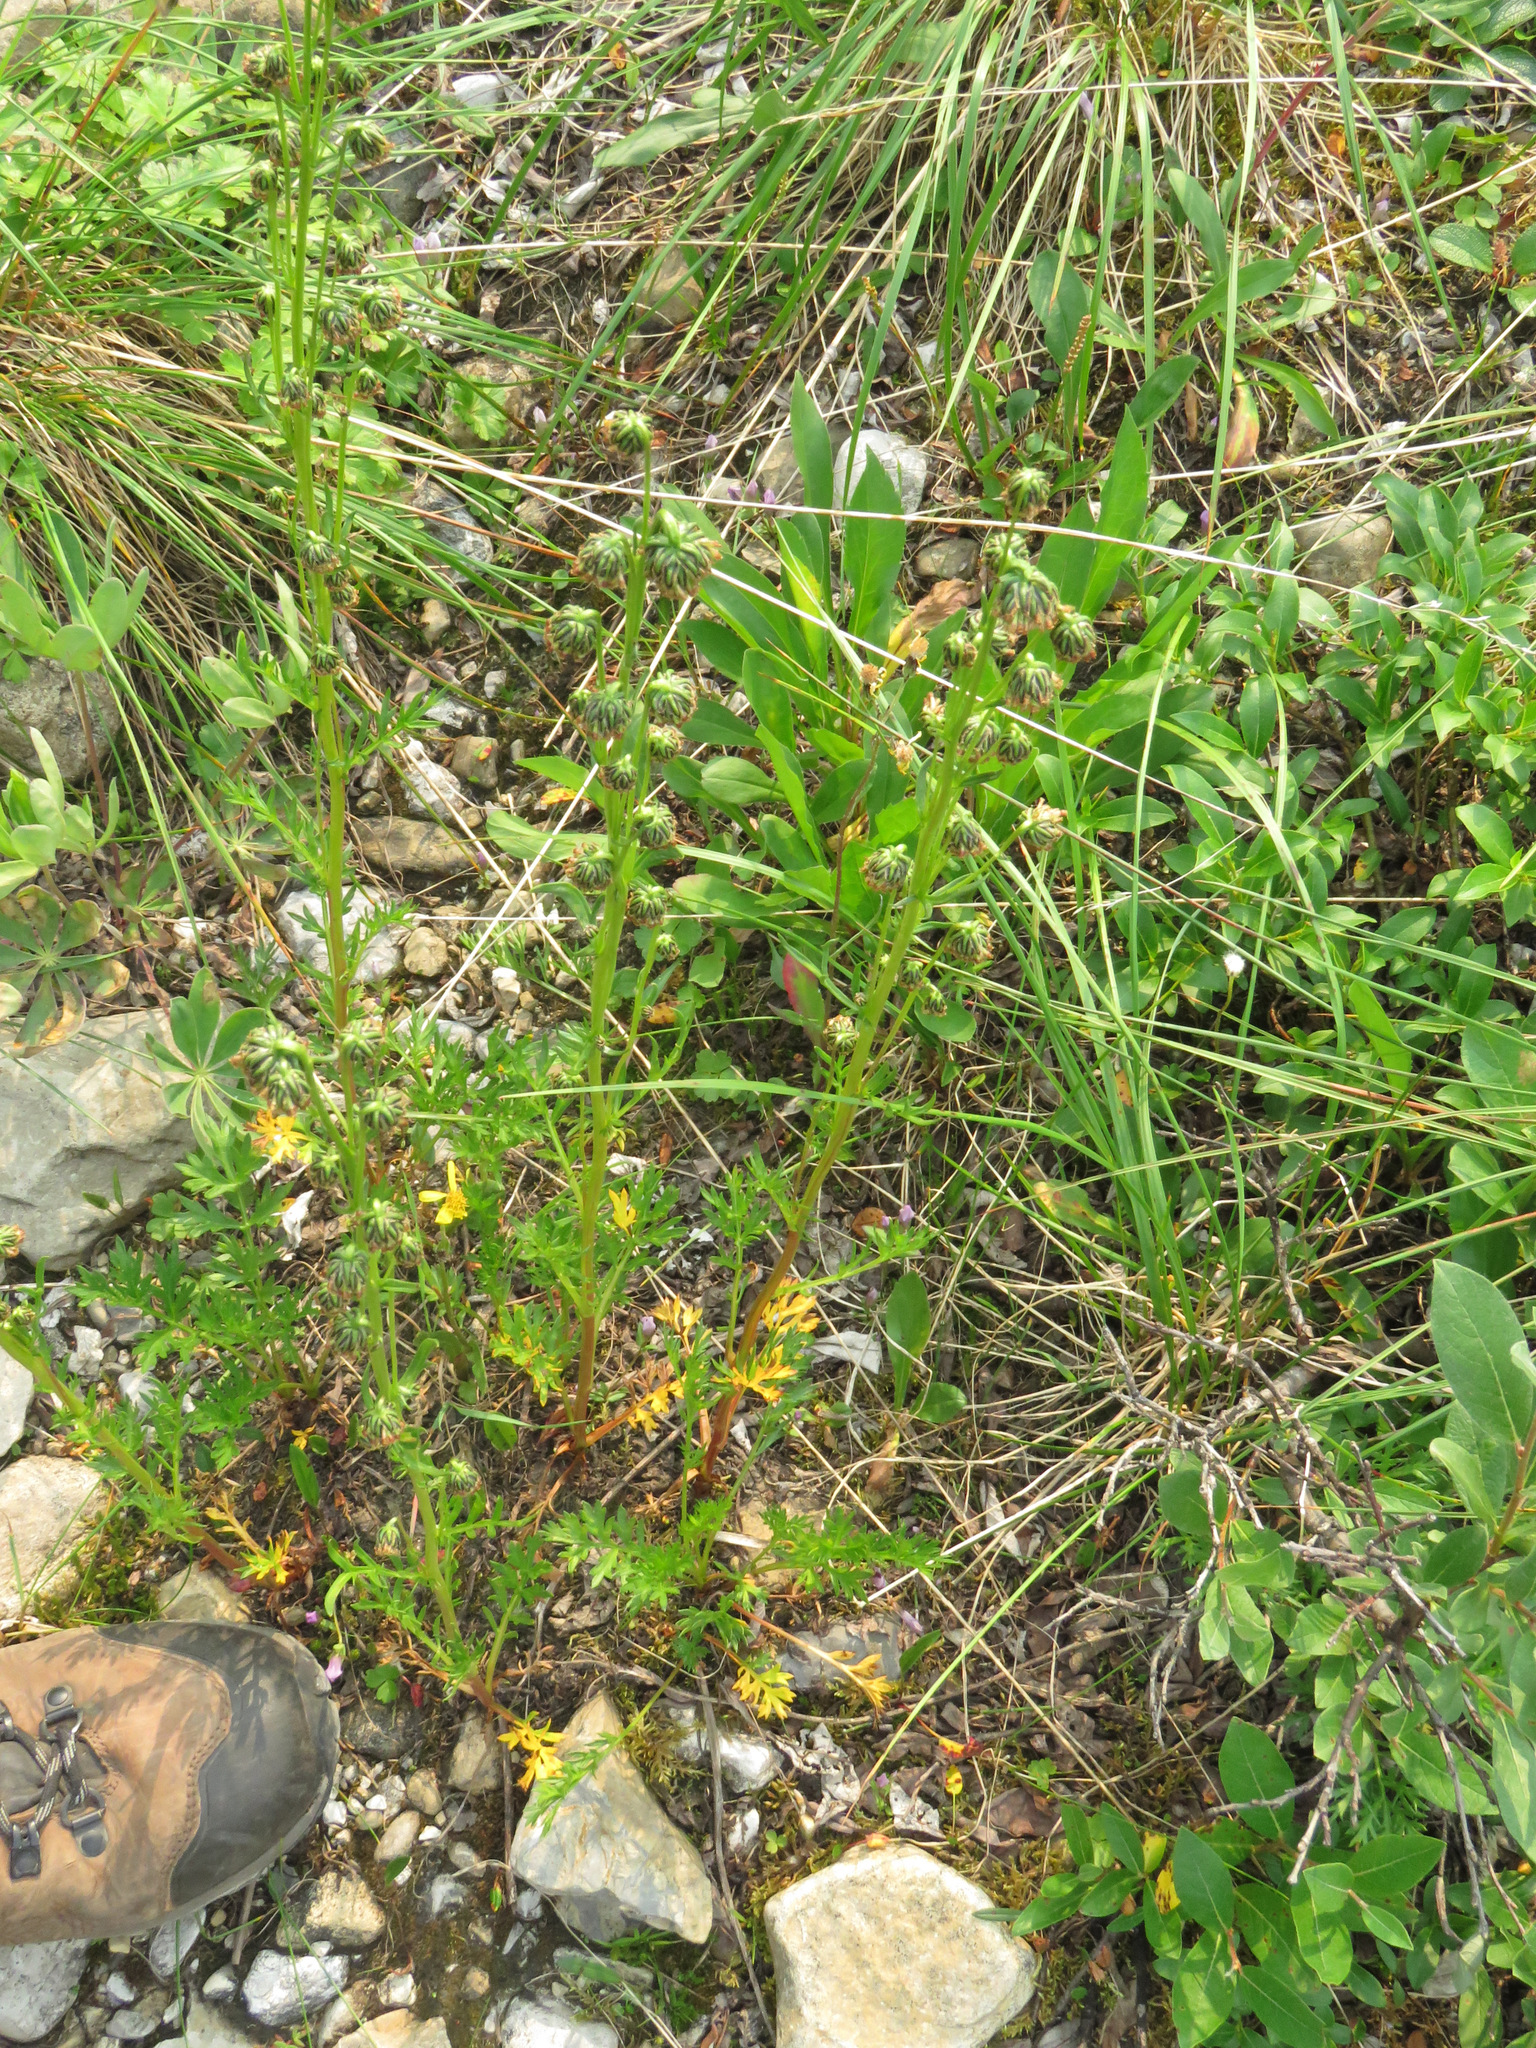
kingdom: Plantae
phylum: Tracheophyta
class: Magnoliopsida
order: Asterales
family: Asteraceae
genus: Artemisia
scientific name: Artemisia norvegica
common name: Norwegian mugwort
